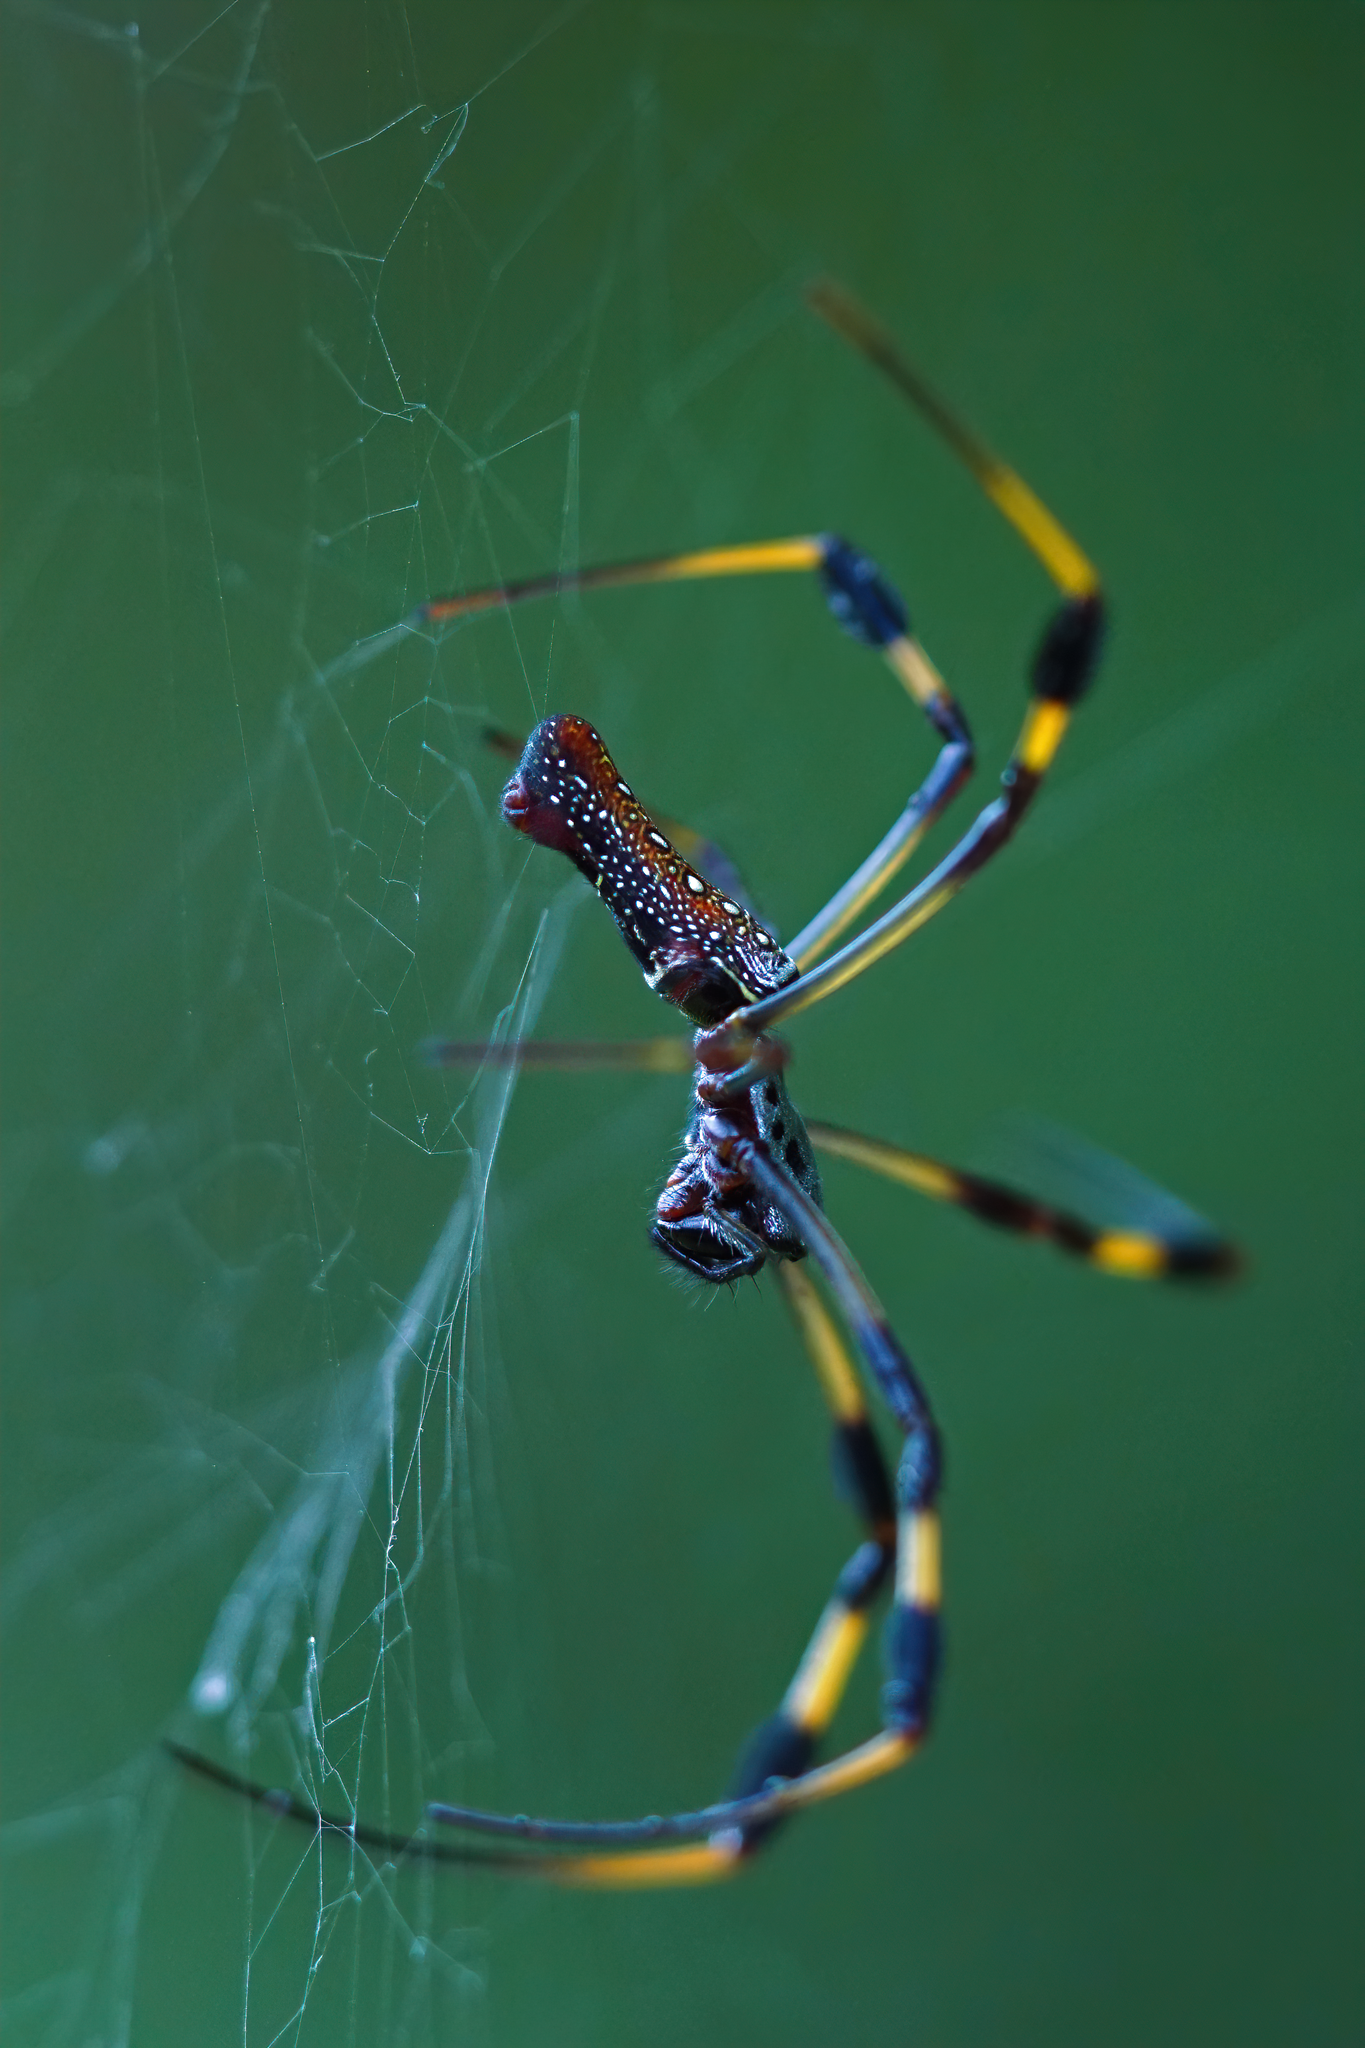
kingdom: Animalia
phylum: Arthropoda
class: Arachnida
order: Araneae
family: Araneidae
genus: Trichonephila
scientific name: Trichonephila clavipes
